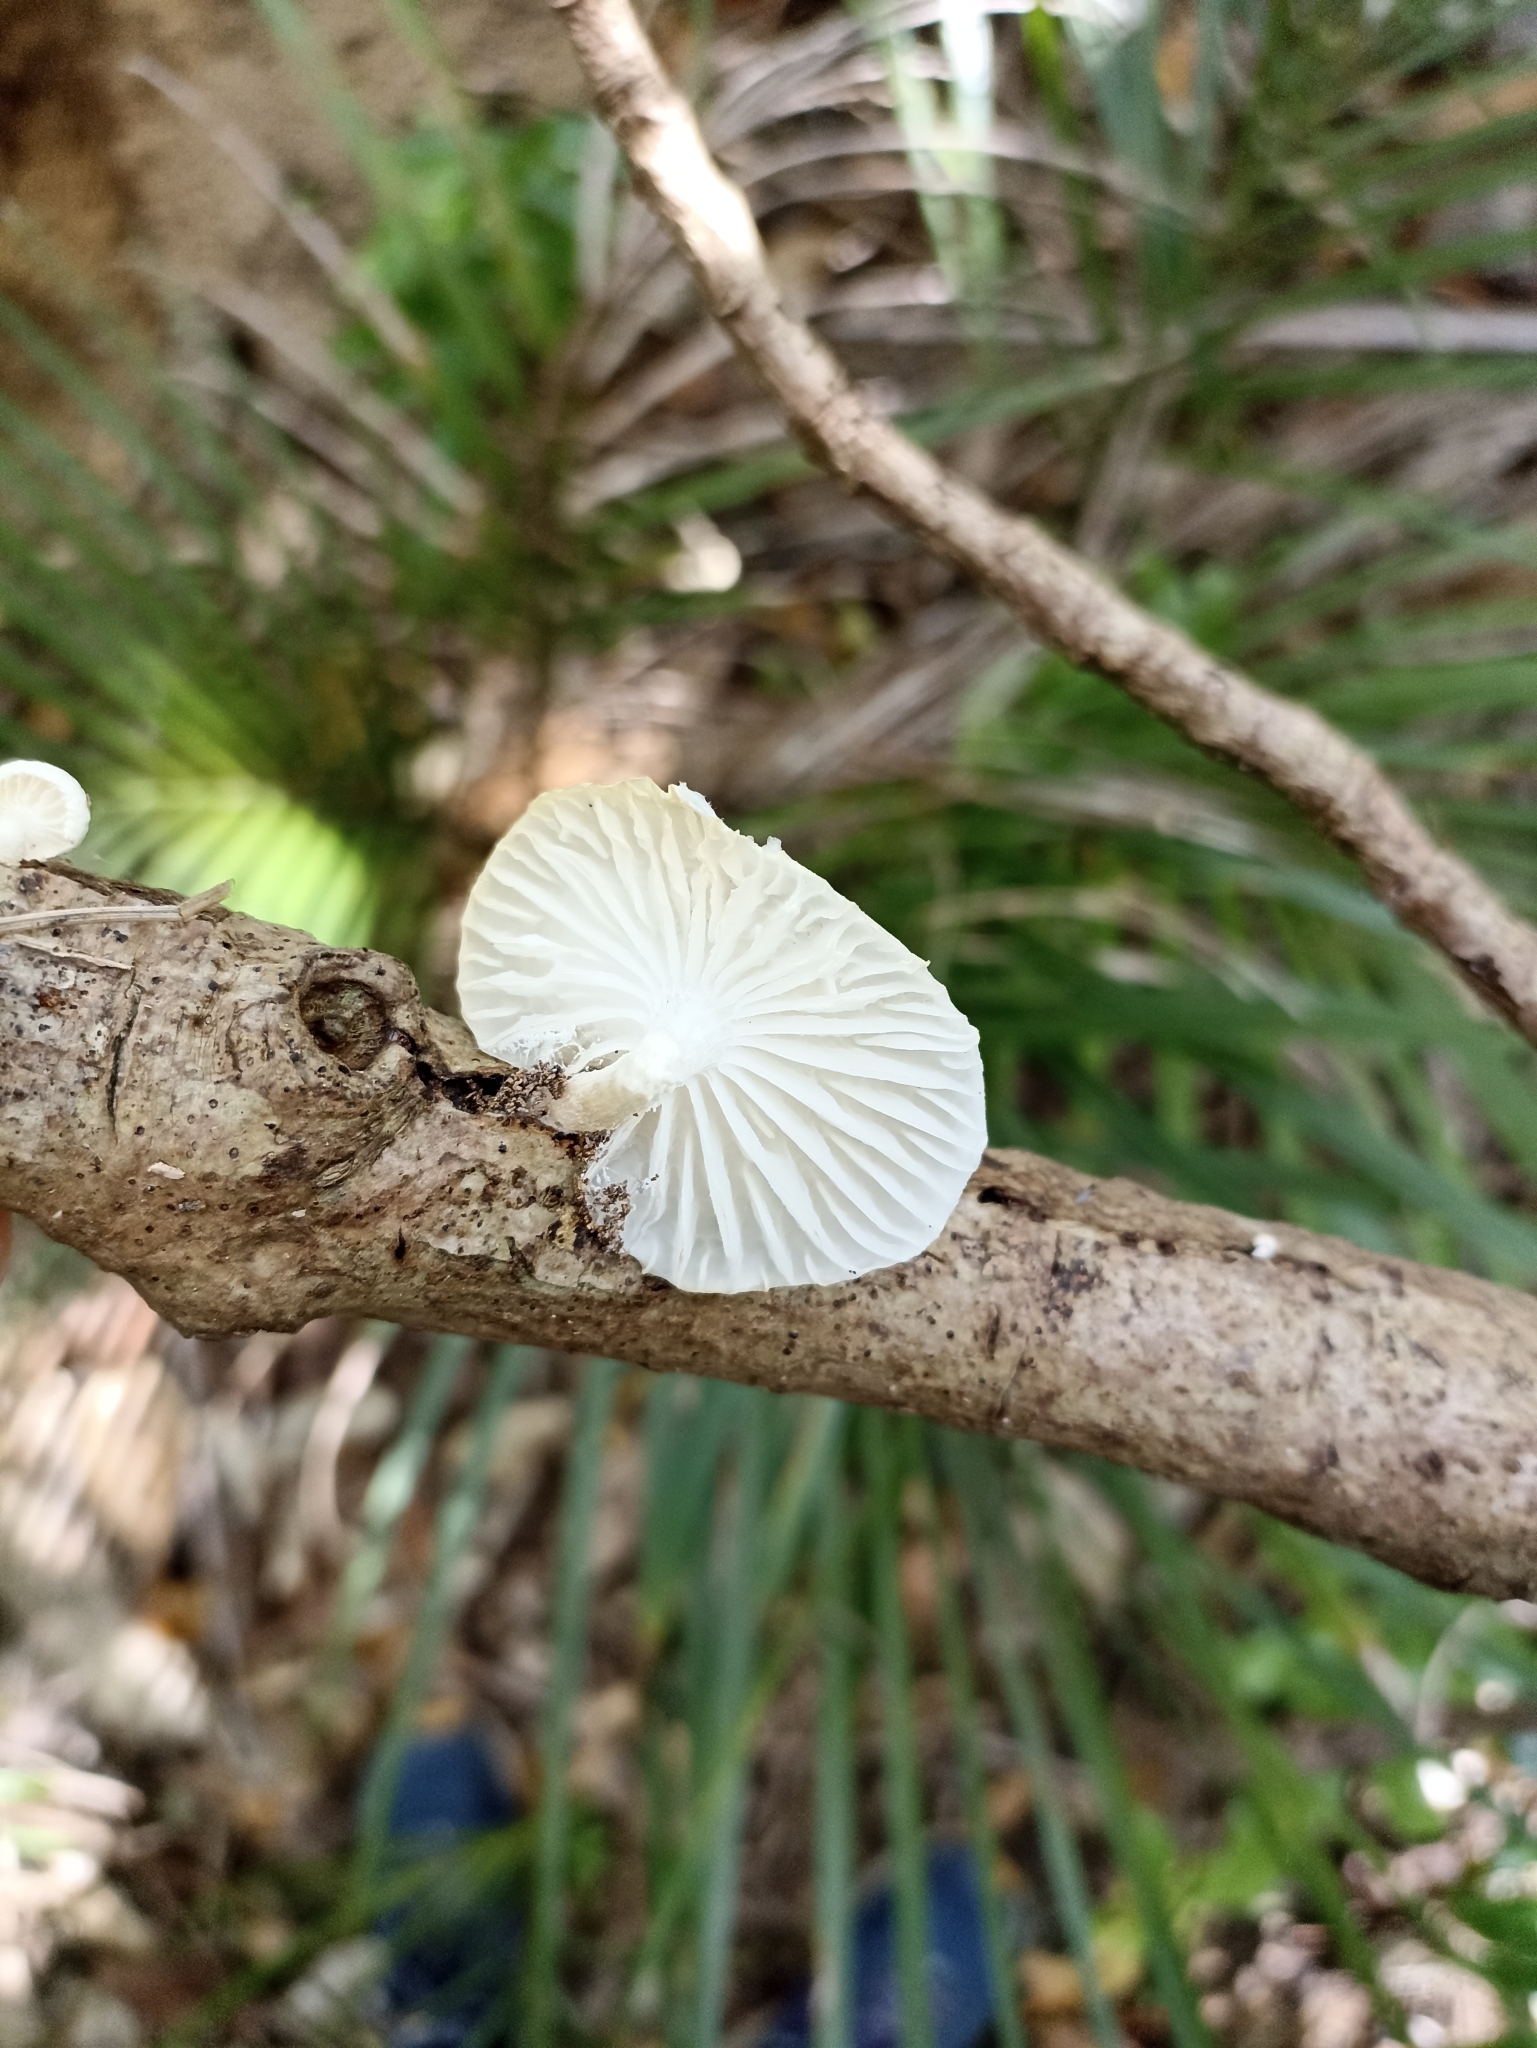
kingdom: Fungi
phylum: Basidiomycota
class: Agaricomycetes
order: Agaricales
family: Physalacriaceae
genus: Oudemansiella
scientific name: Oudemansiella australis
